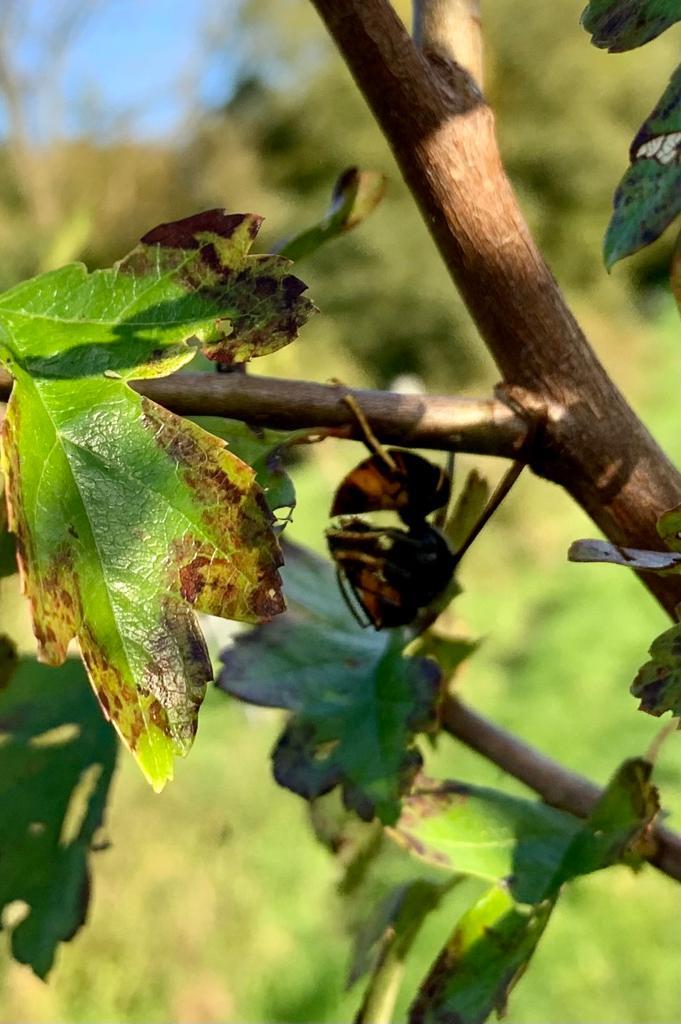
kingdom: Animalia
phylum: Arthropoda
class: Insecta
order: Hymenoptera
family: Vespidae
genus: Vespa
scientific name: Vespa velutina
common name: Asian hornet
